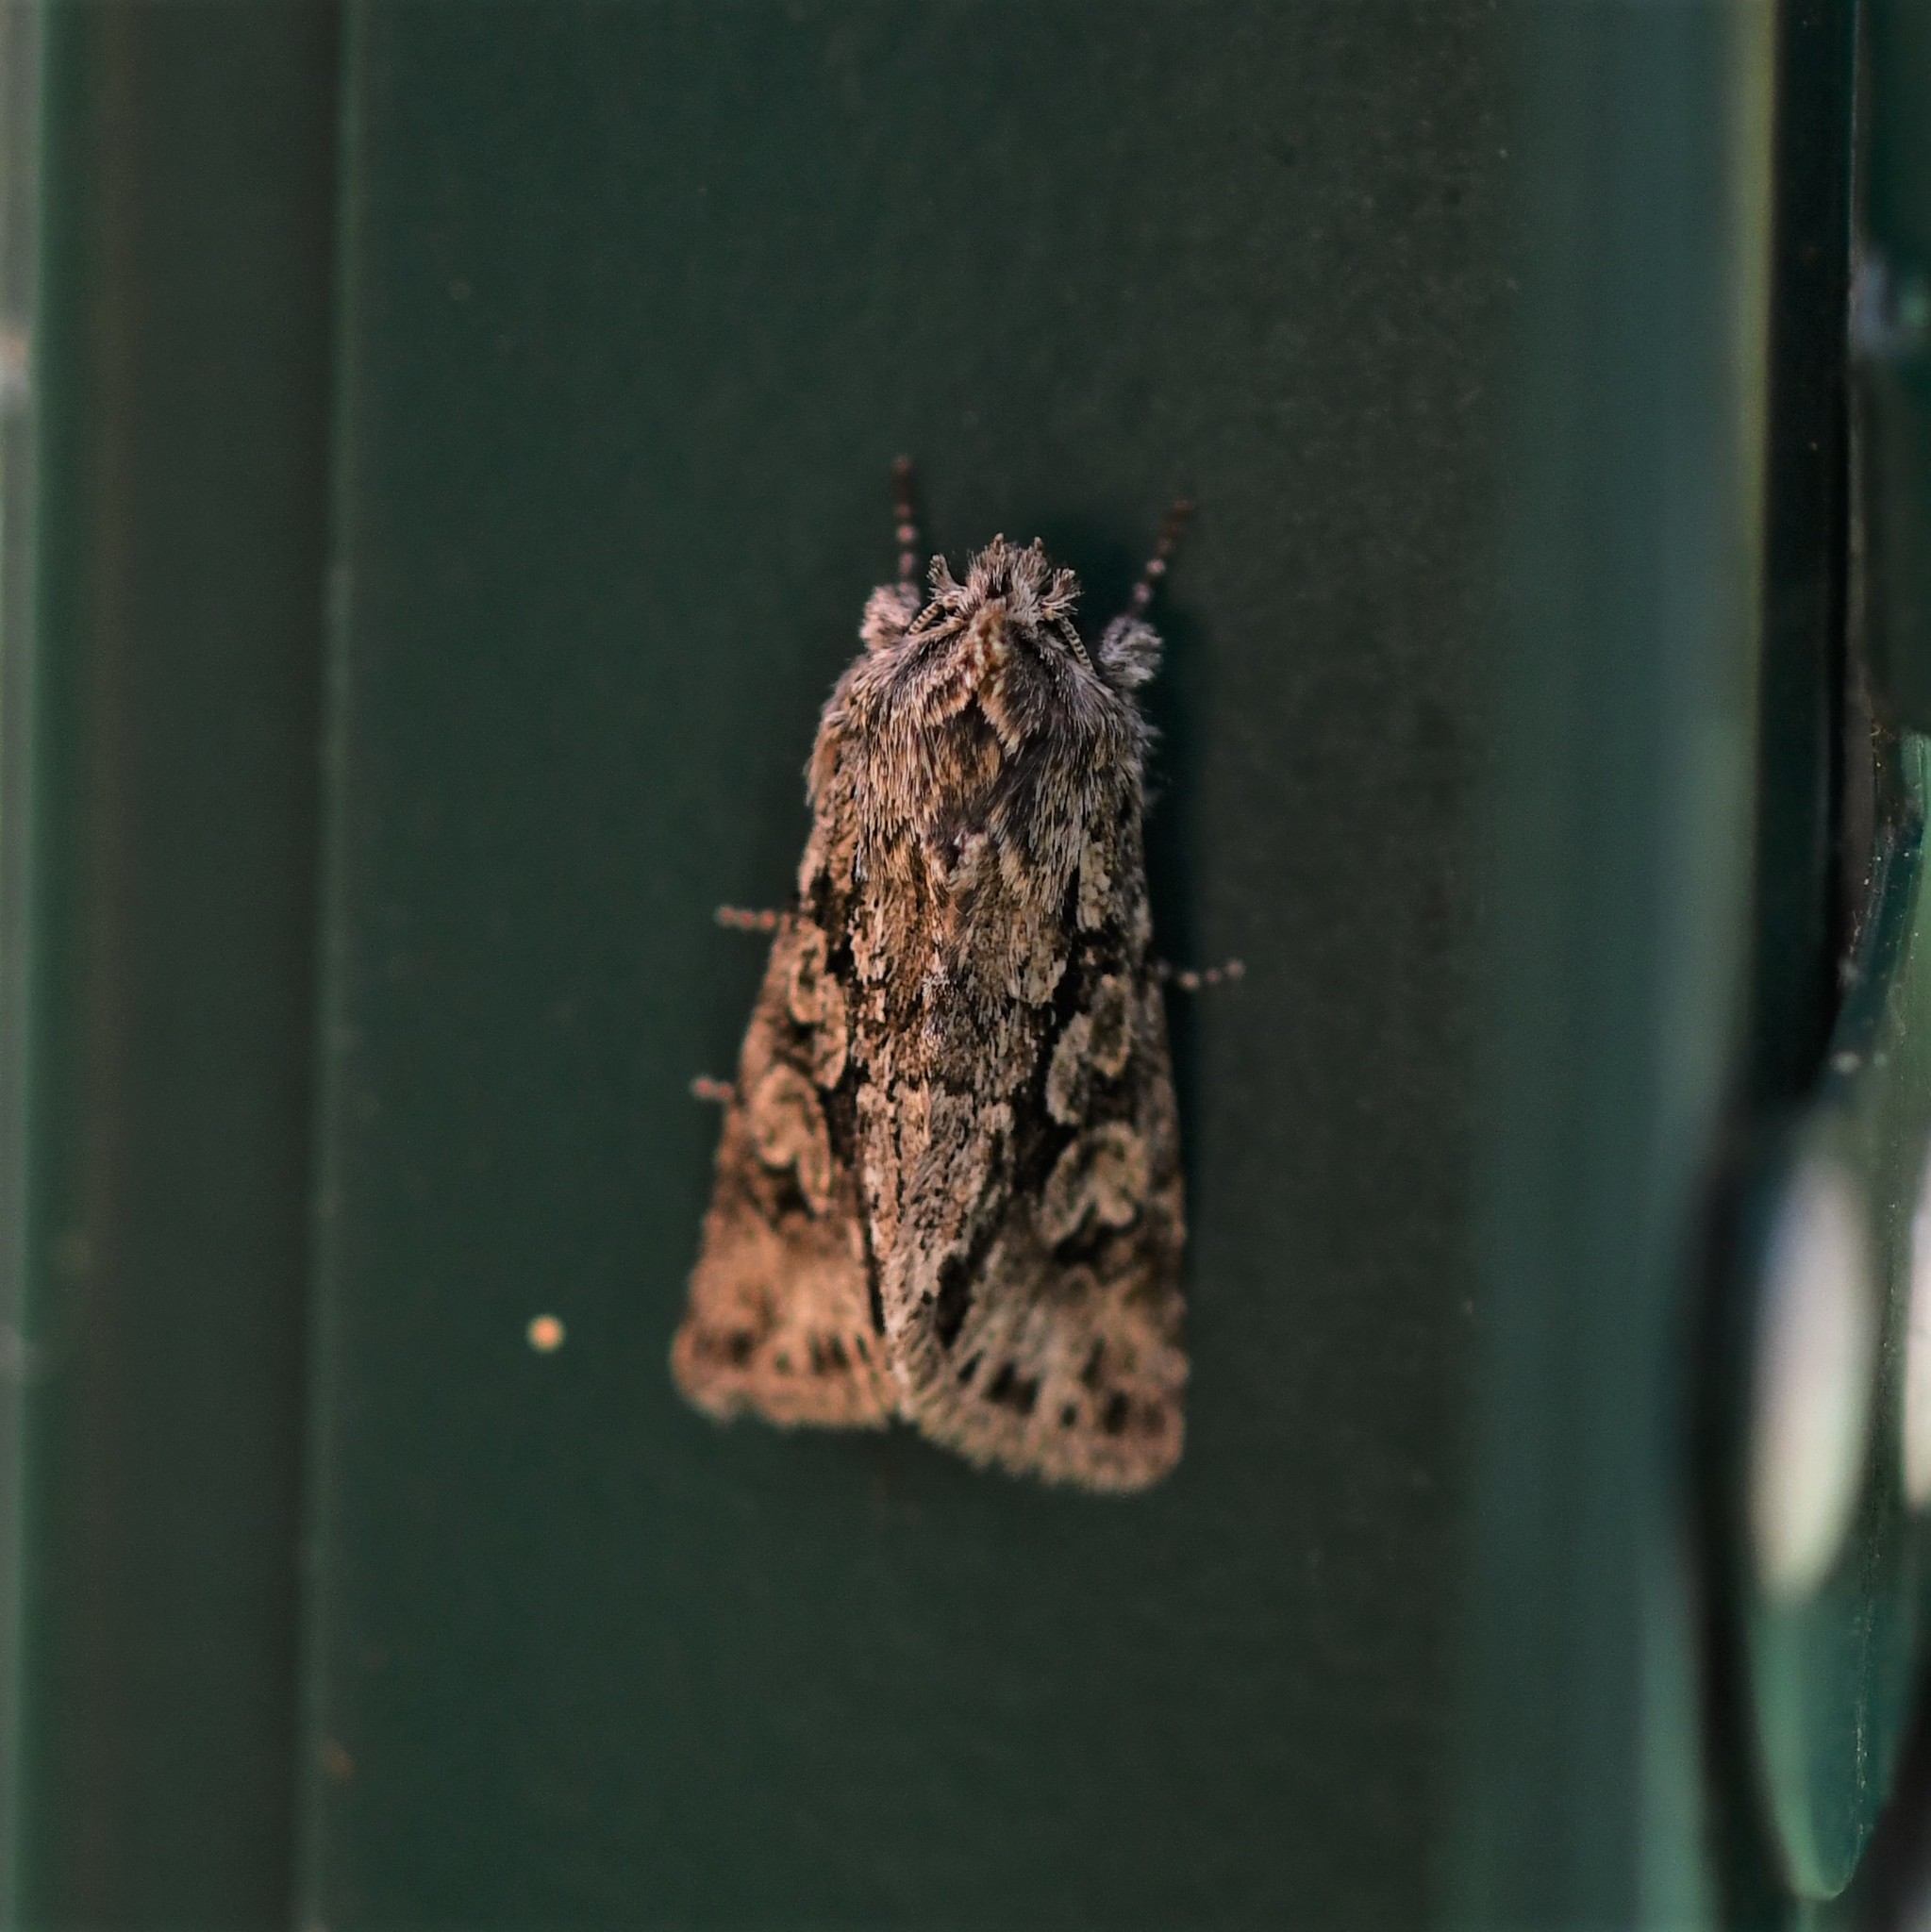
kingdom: Animalia
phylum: Arthropoda
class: Insecta
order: Lepidoptera
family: Noctuidae
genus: Xylocampa
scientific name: Xylocampa areola
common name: Early grey
